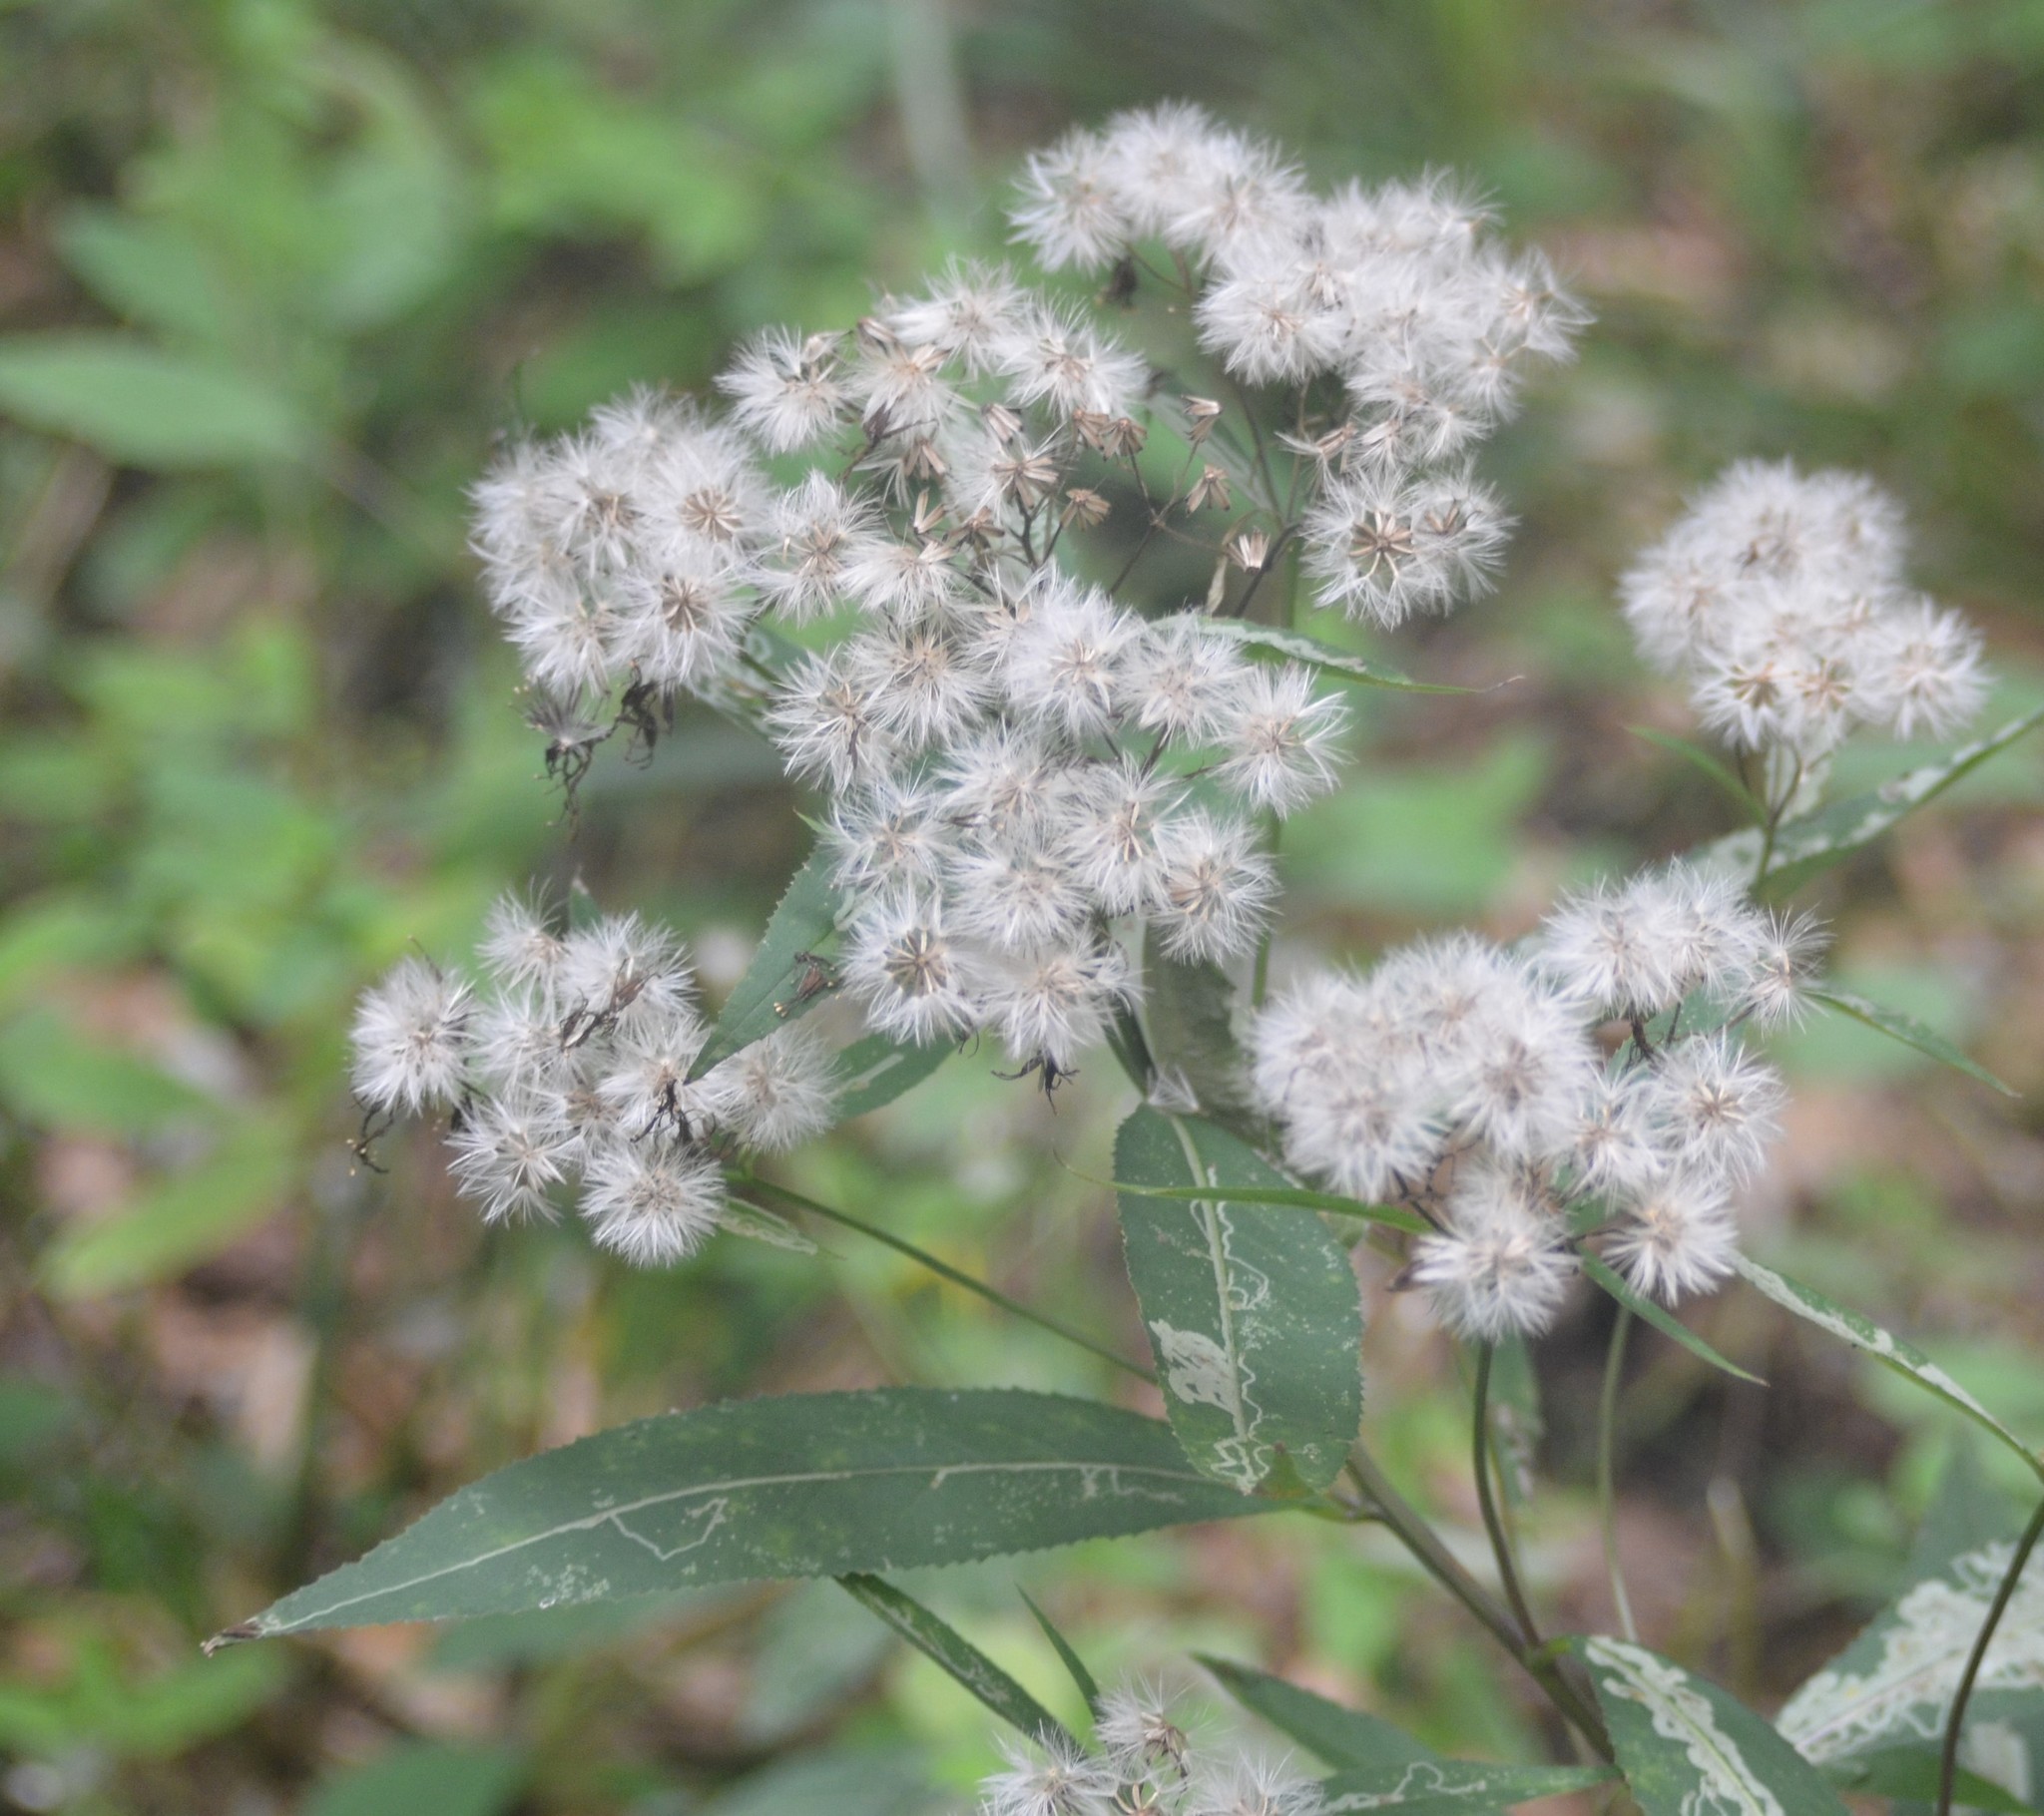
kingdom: Plantae
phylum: Tracheophyta
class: Magnoliopsida
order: Asterales
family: Asteraceae
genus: Senecio
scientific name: Senecio ovatus
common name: Wood ragwort
